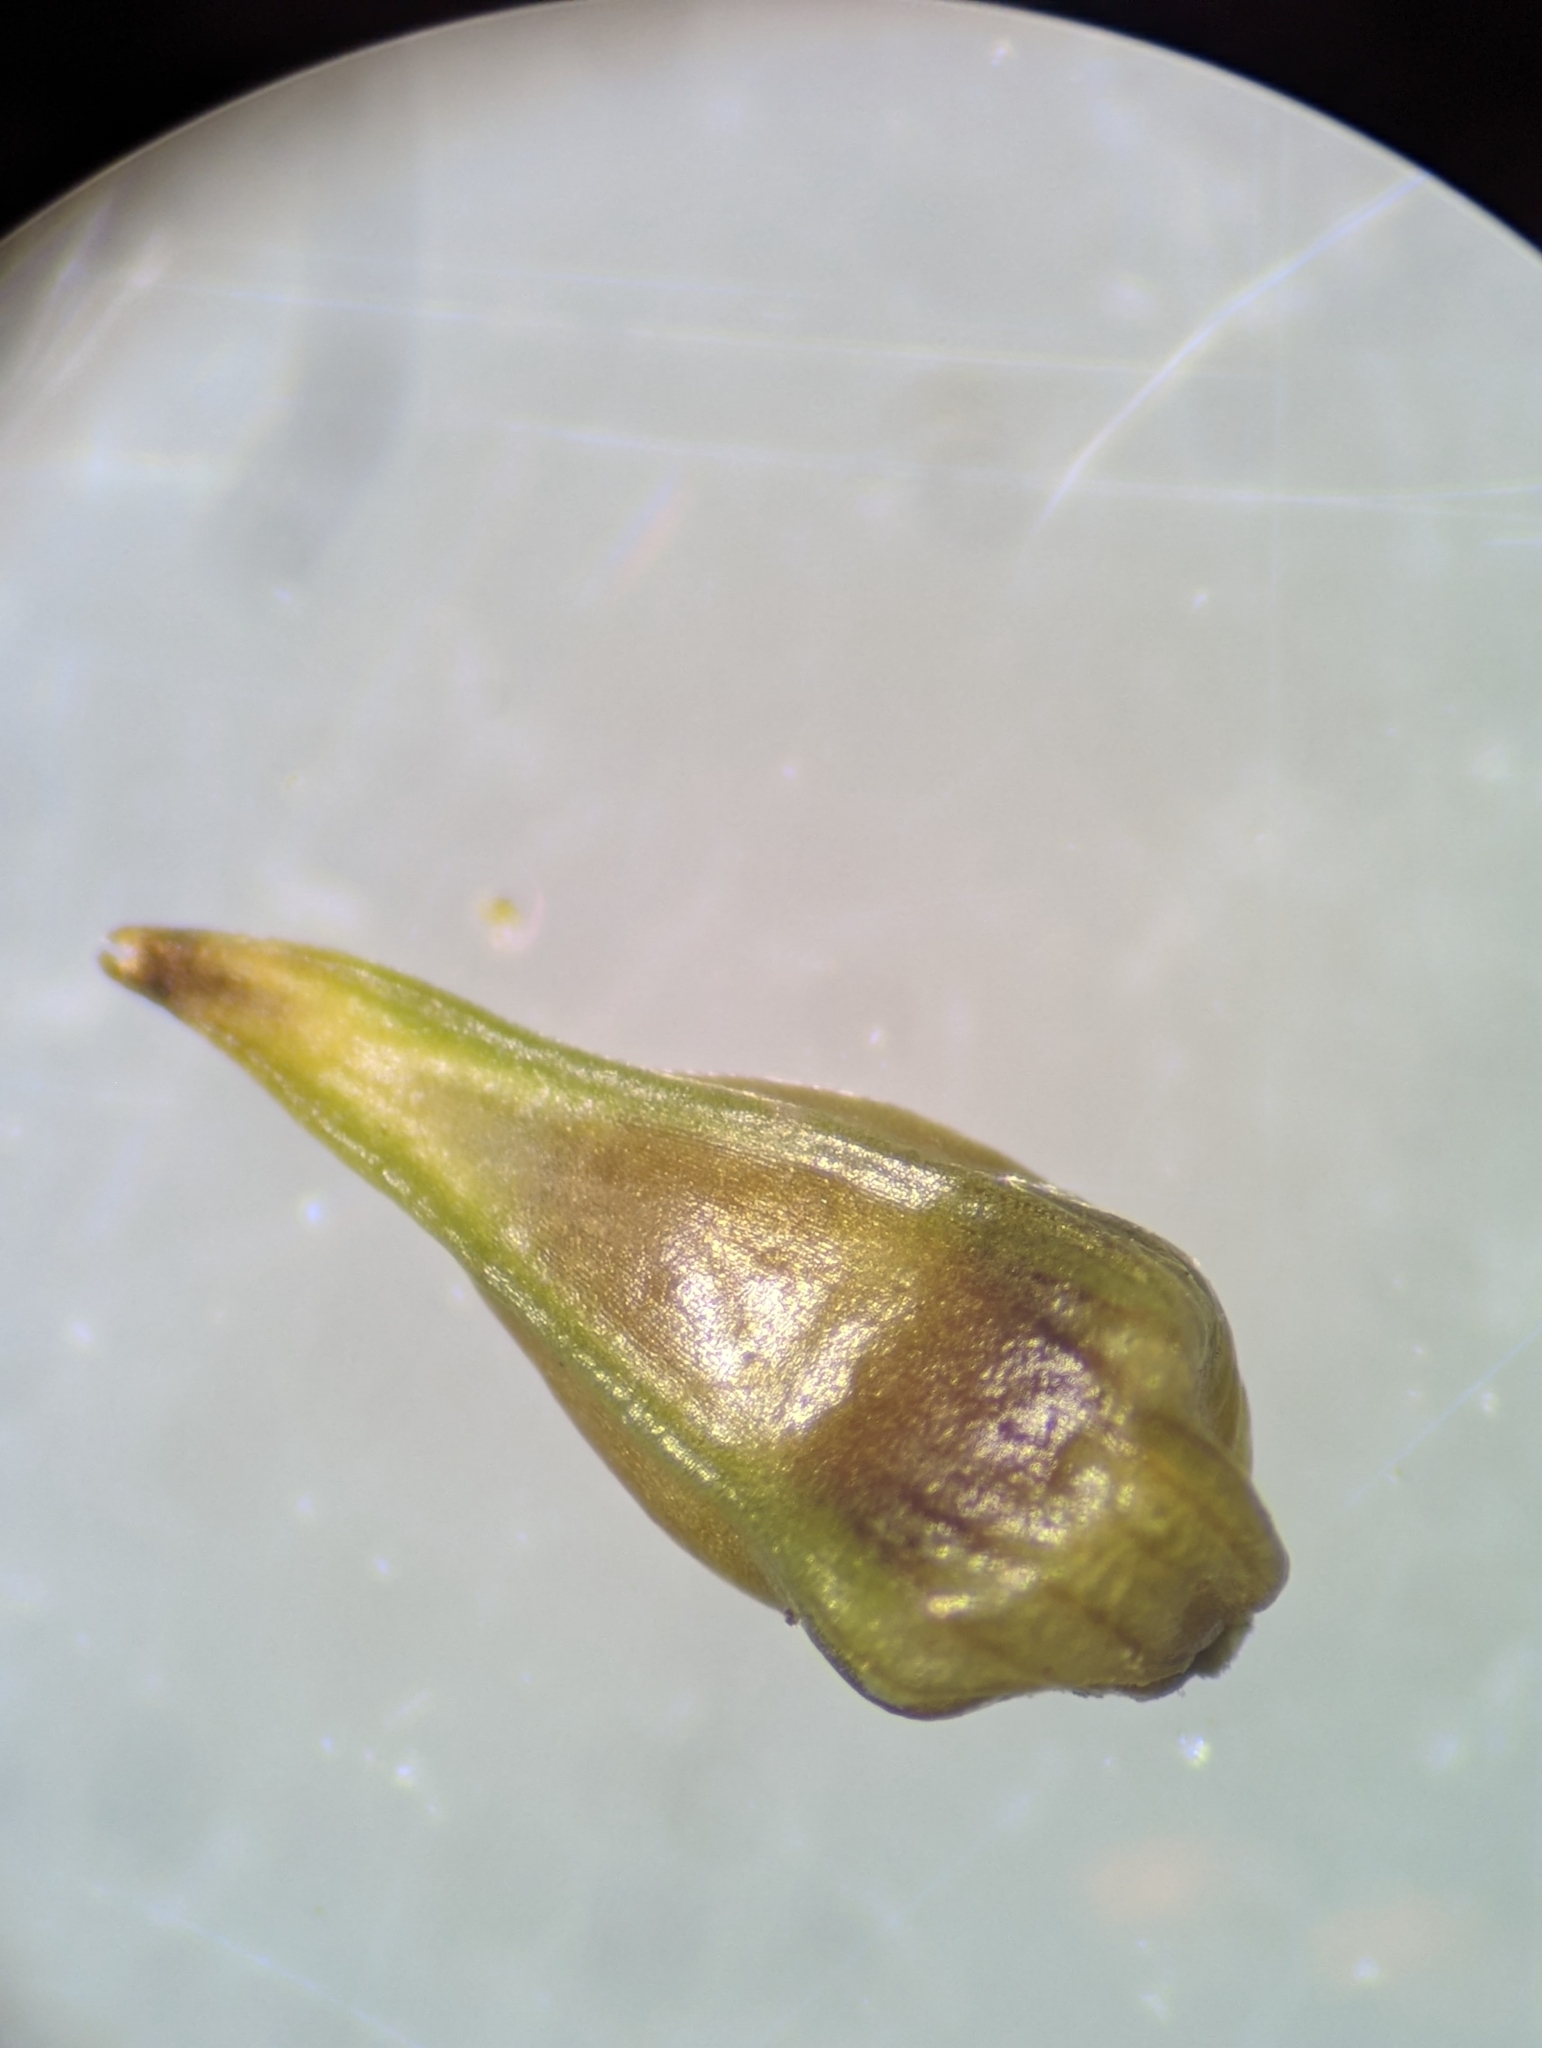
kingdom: Plantae
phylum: Tracheophyta
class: Liliopsida
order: Poales
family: Cyperaceae
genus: Carex
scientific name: Carex texensis
